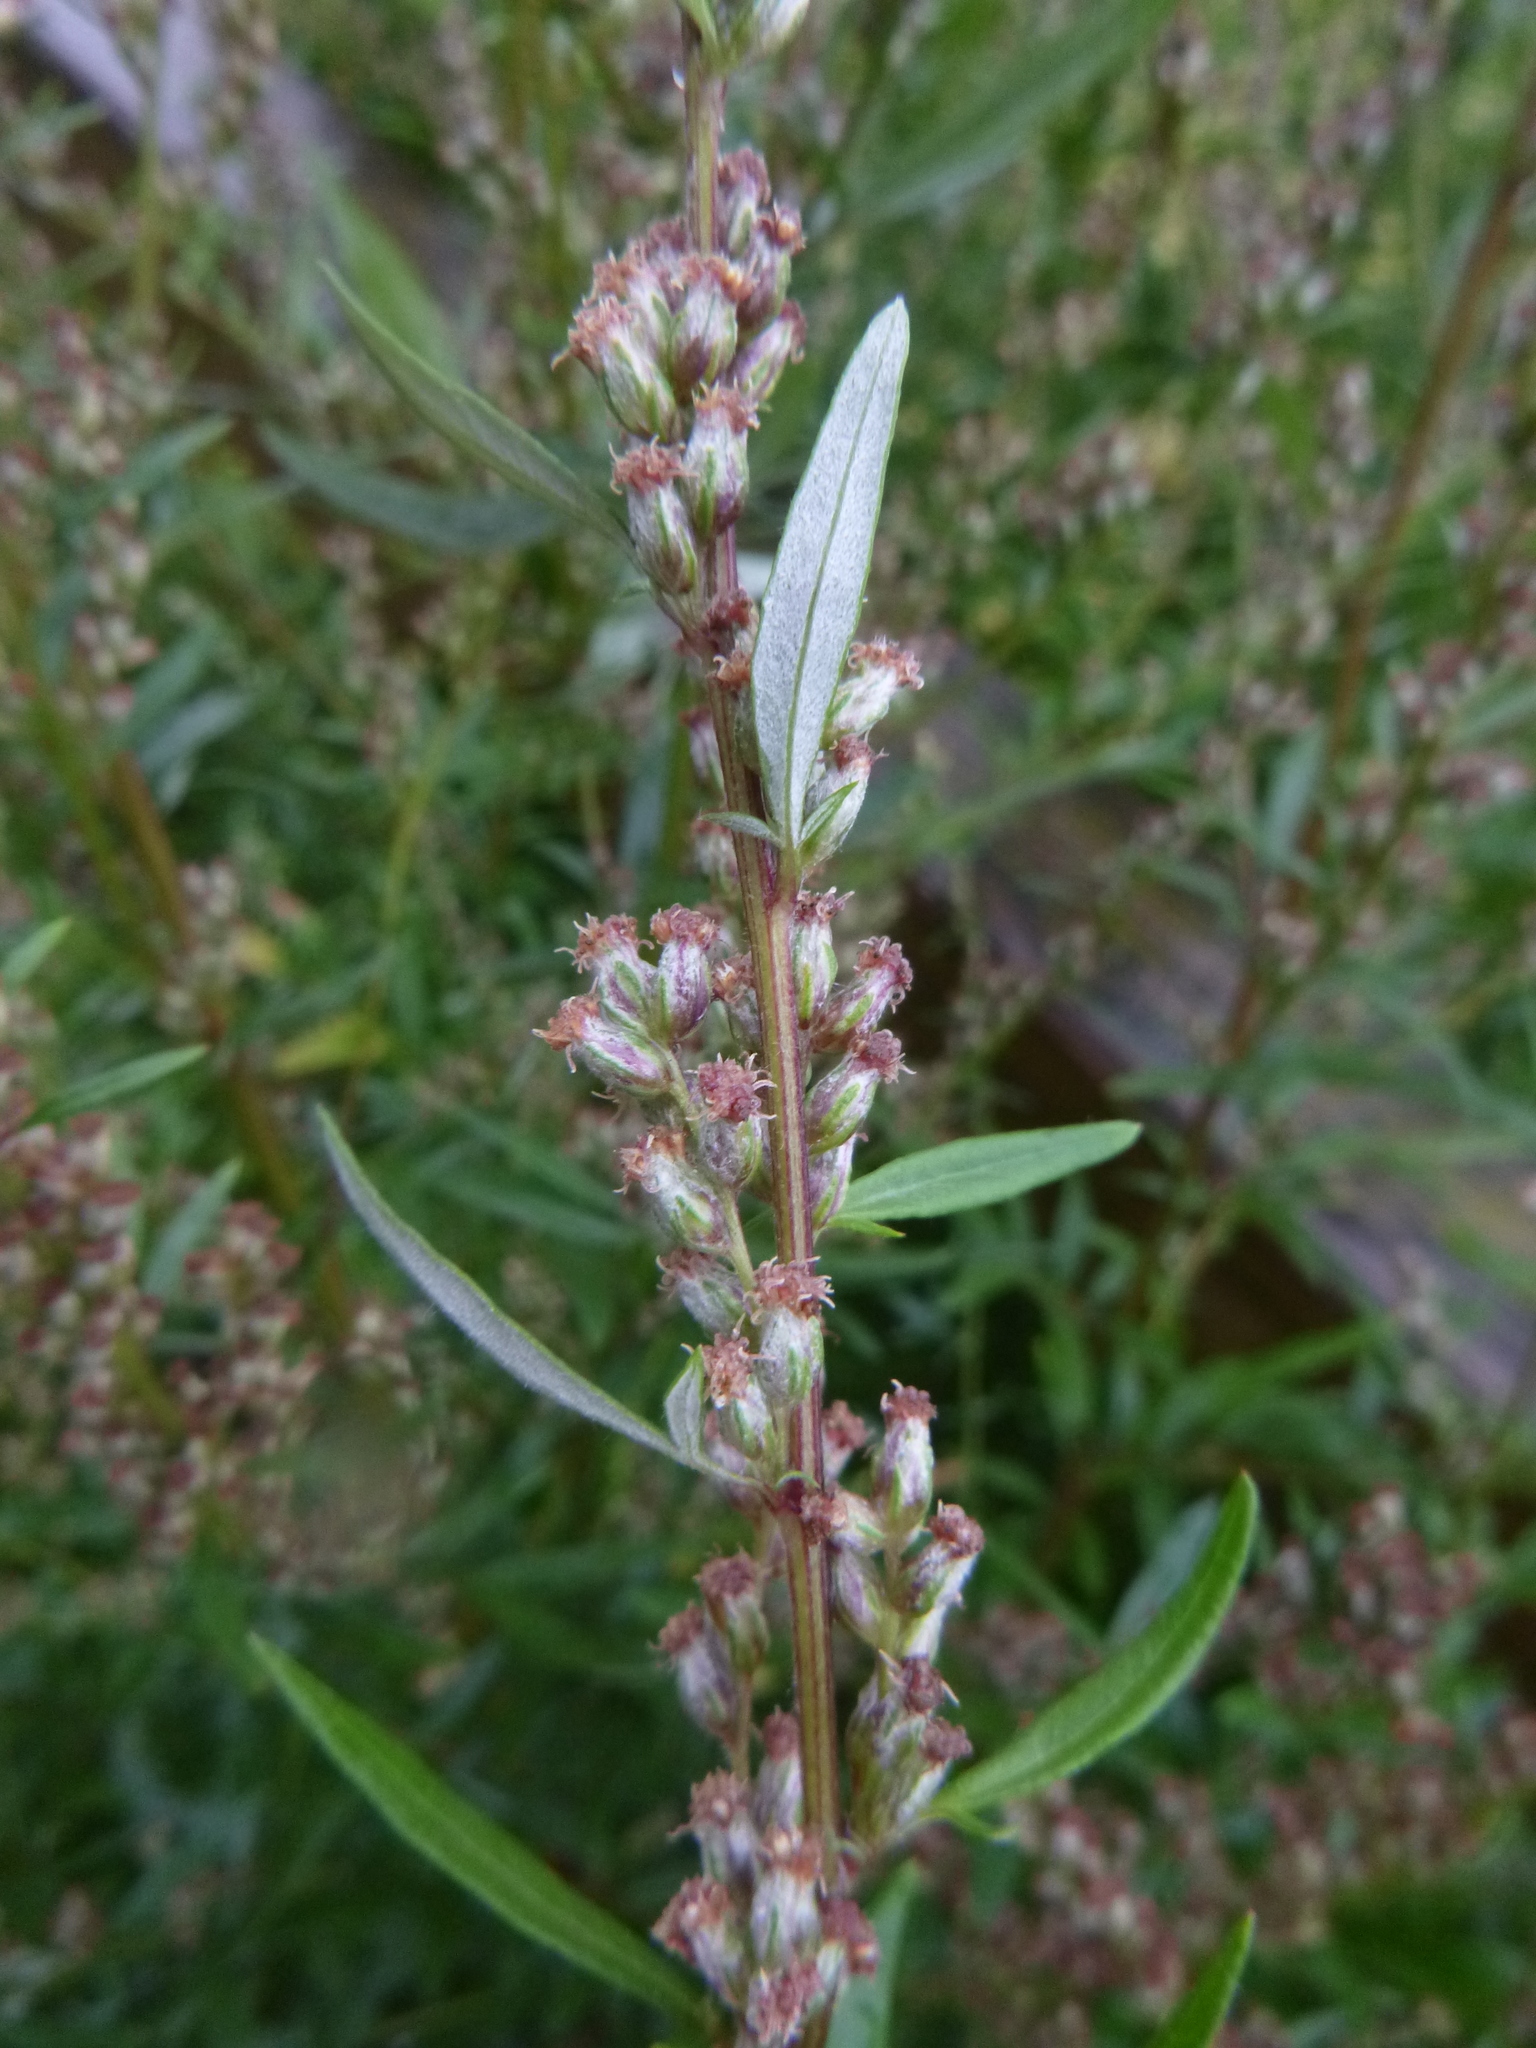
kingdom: Plantae
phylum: Tracheophyta
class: Magnoliopsida
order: Asterales
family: Asteraceae
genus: Artemisia
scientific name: Artemisia vulgaris
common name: Mugwort
